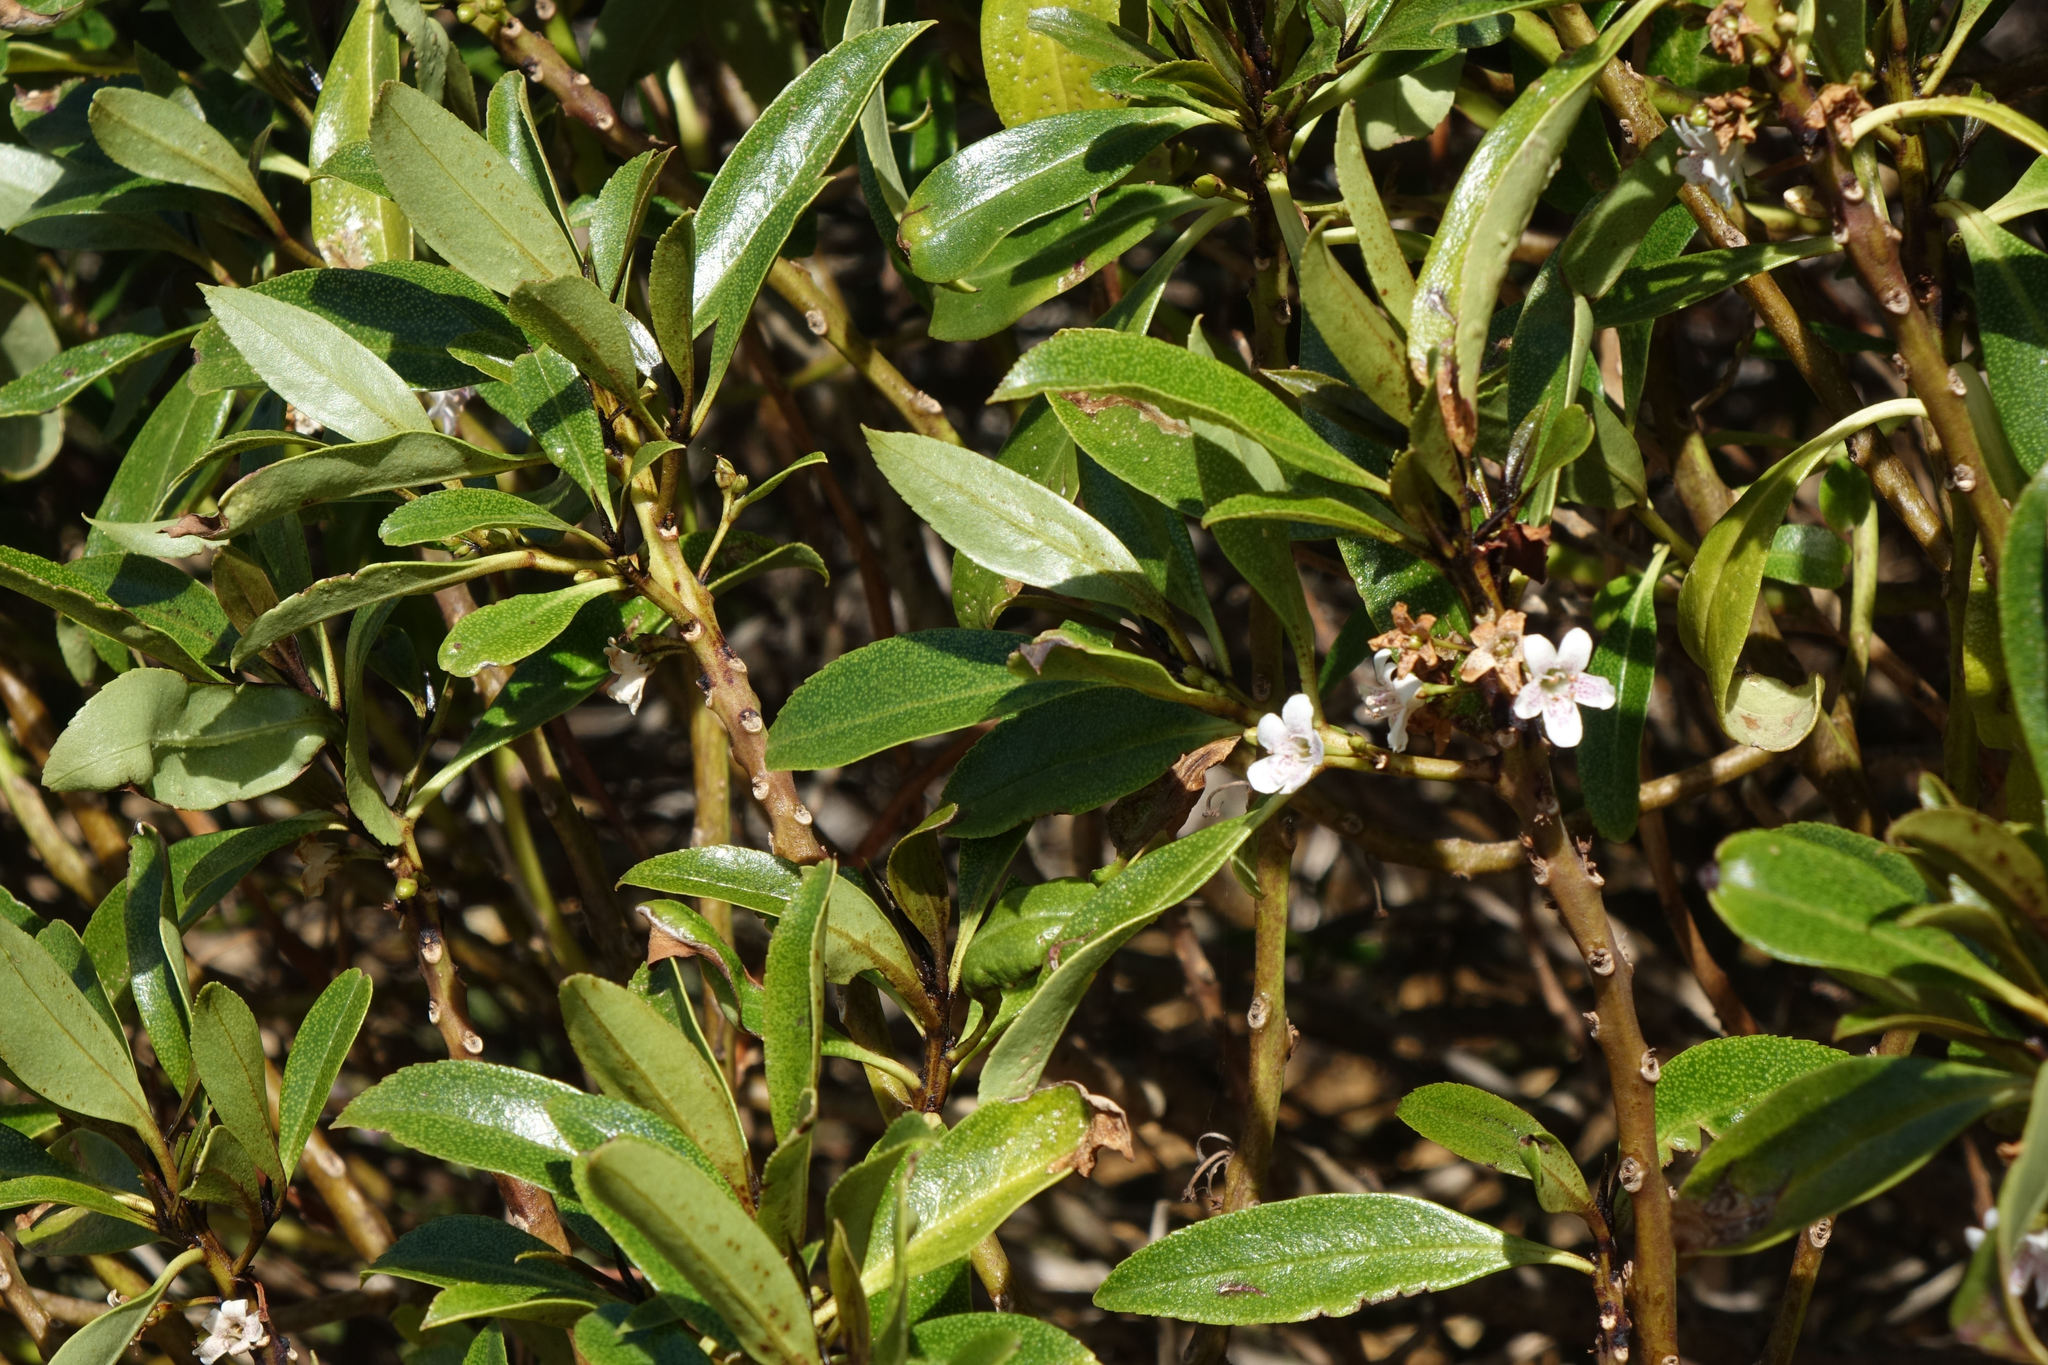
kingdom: Plantae
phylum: Tracheophyta
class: Magnoliopsida
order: Lamiales
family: Scrophulariaceae
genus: Myoporum
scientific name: Myoporum laetum
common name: Ngaio tree
